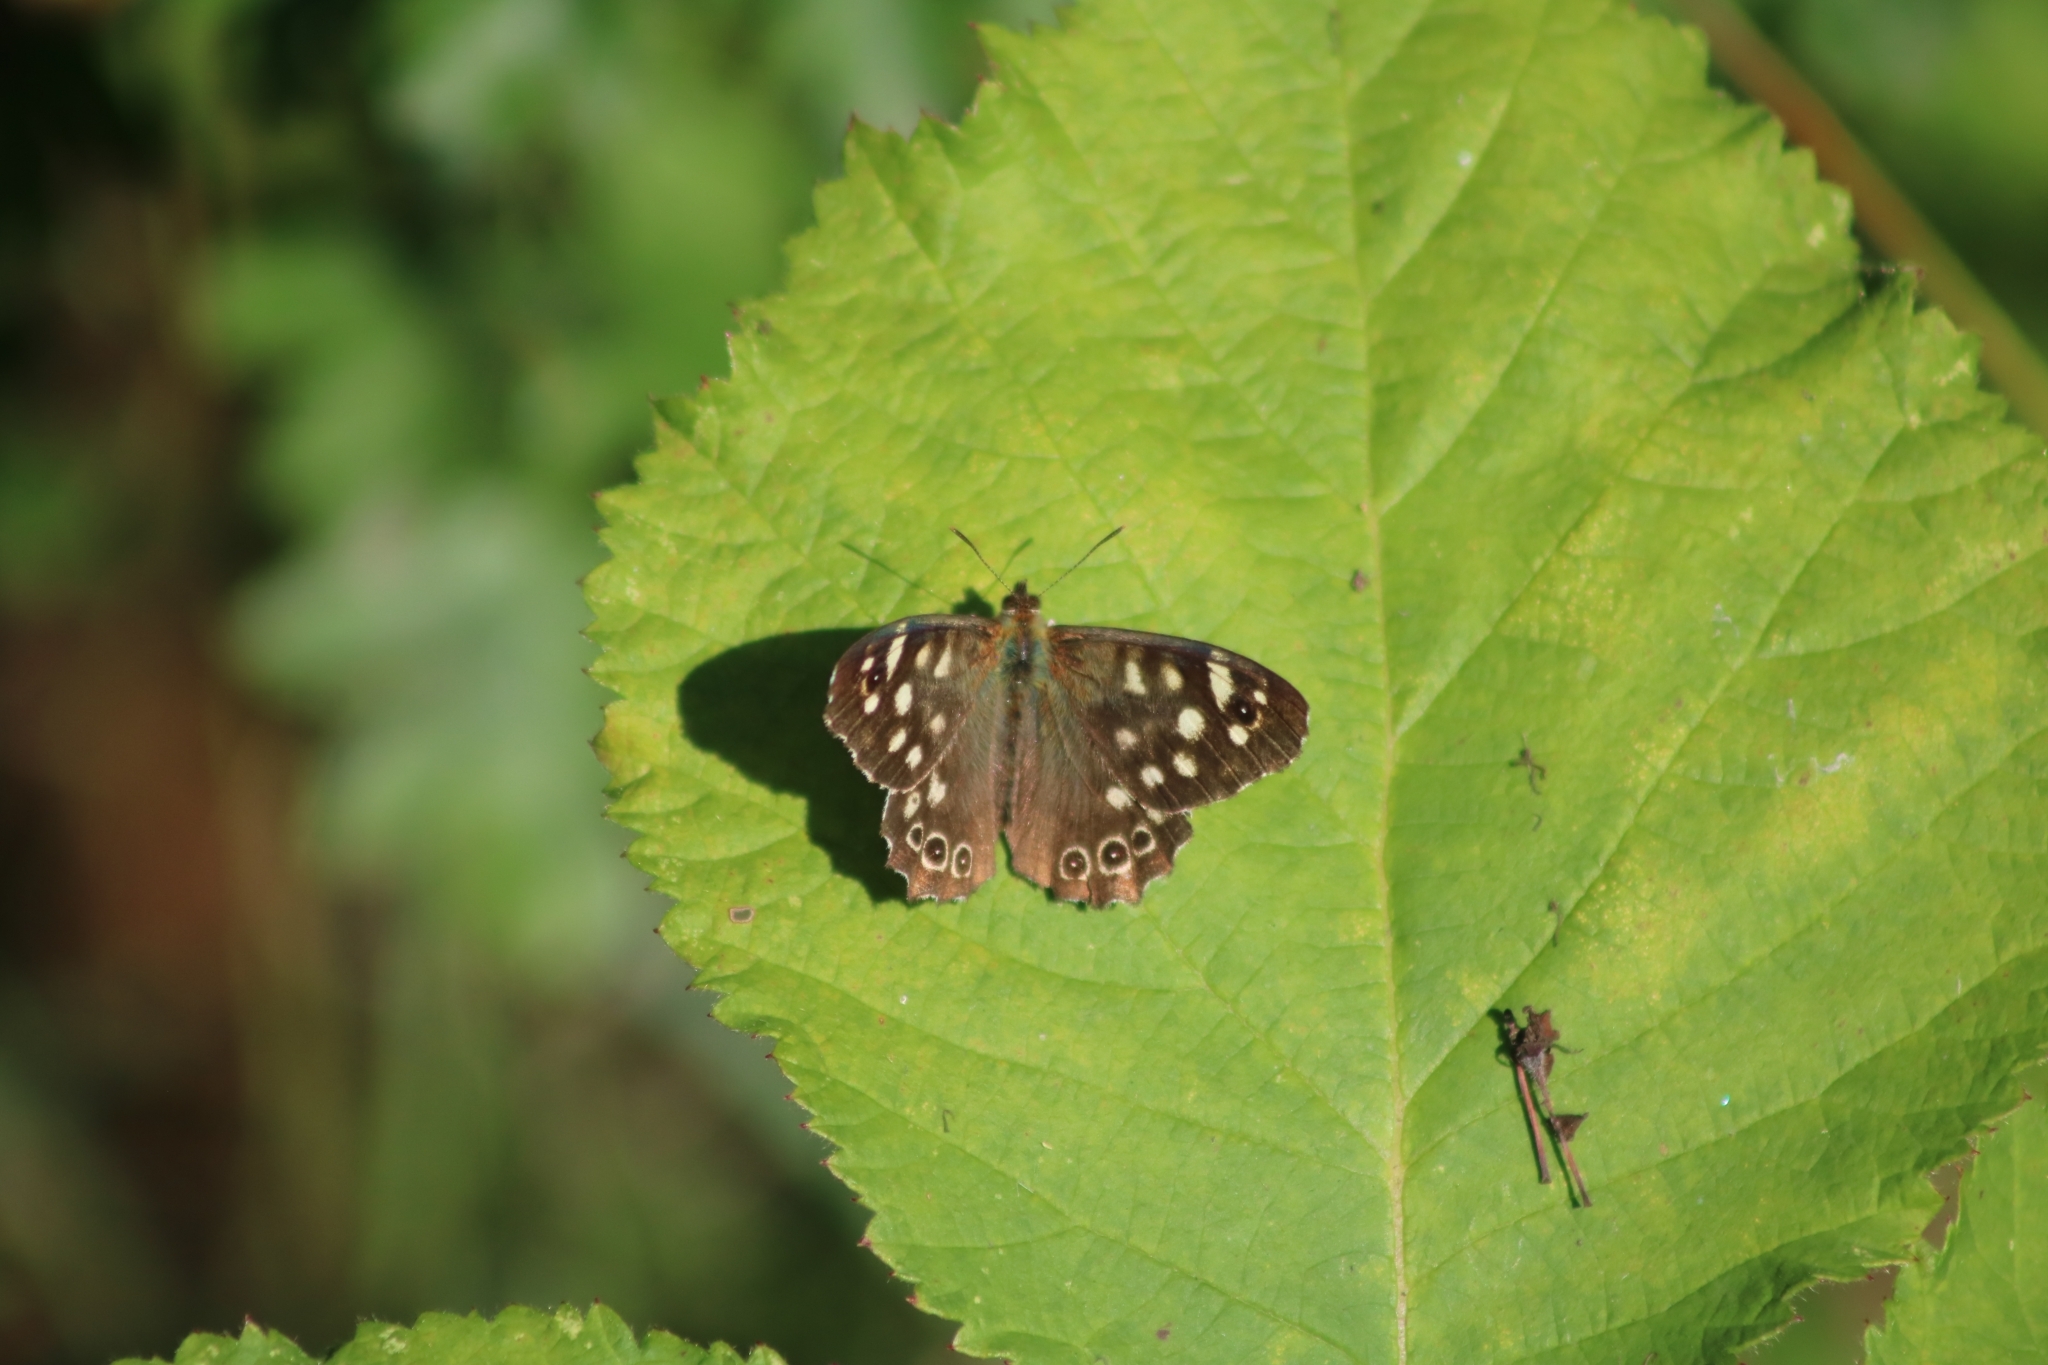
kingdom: Animalia
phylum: Arthropoda
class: Insecta
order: Lepidoptera
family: Nymphalidae
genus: Pararge
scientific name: Pararge aegeria
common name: Speckled wood
